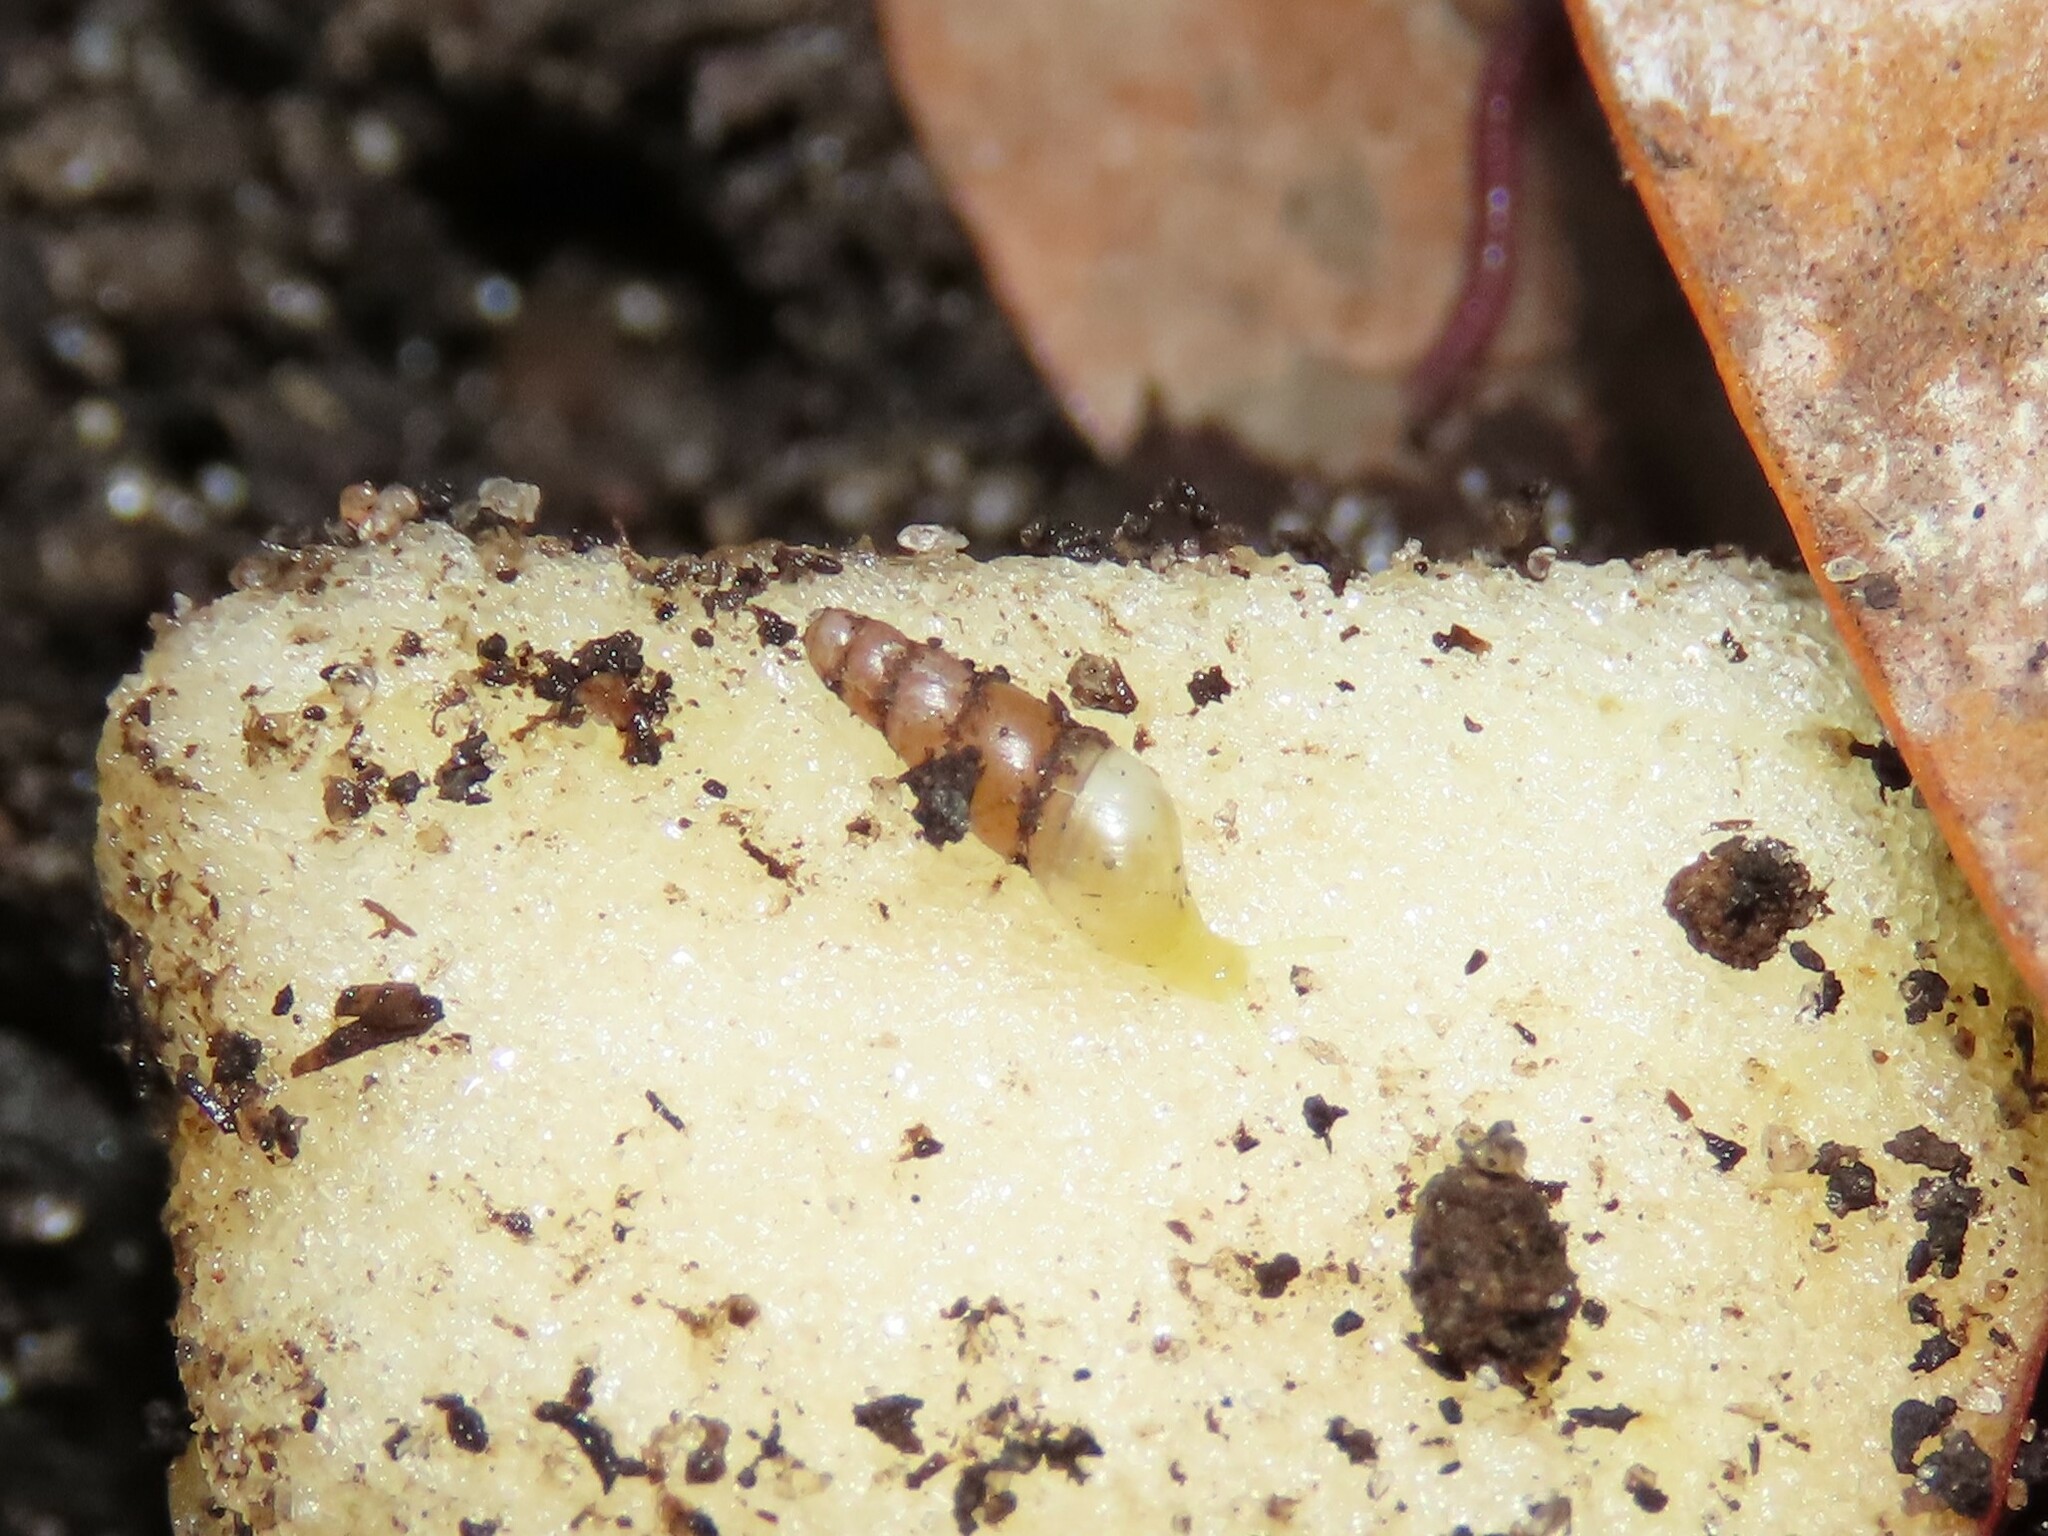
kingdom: Animalia
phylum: Mollusca
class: Gastropoda
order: Stylommatophora
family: Achatinidae
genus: Allopeas
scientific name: Allopeas gracile
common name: Graceful awlsnail
